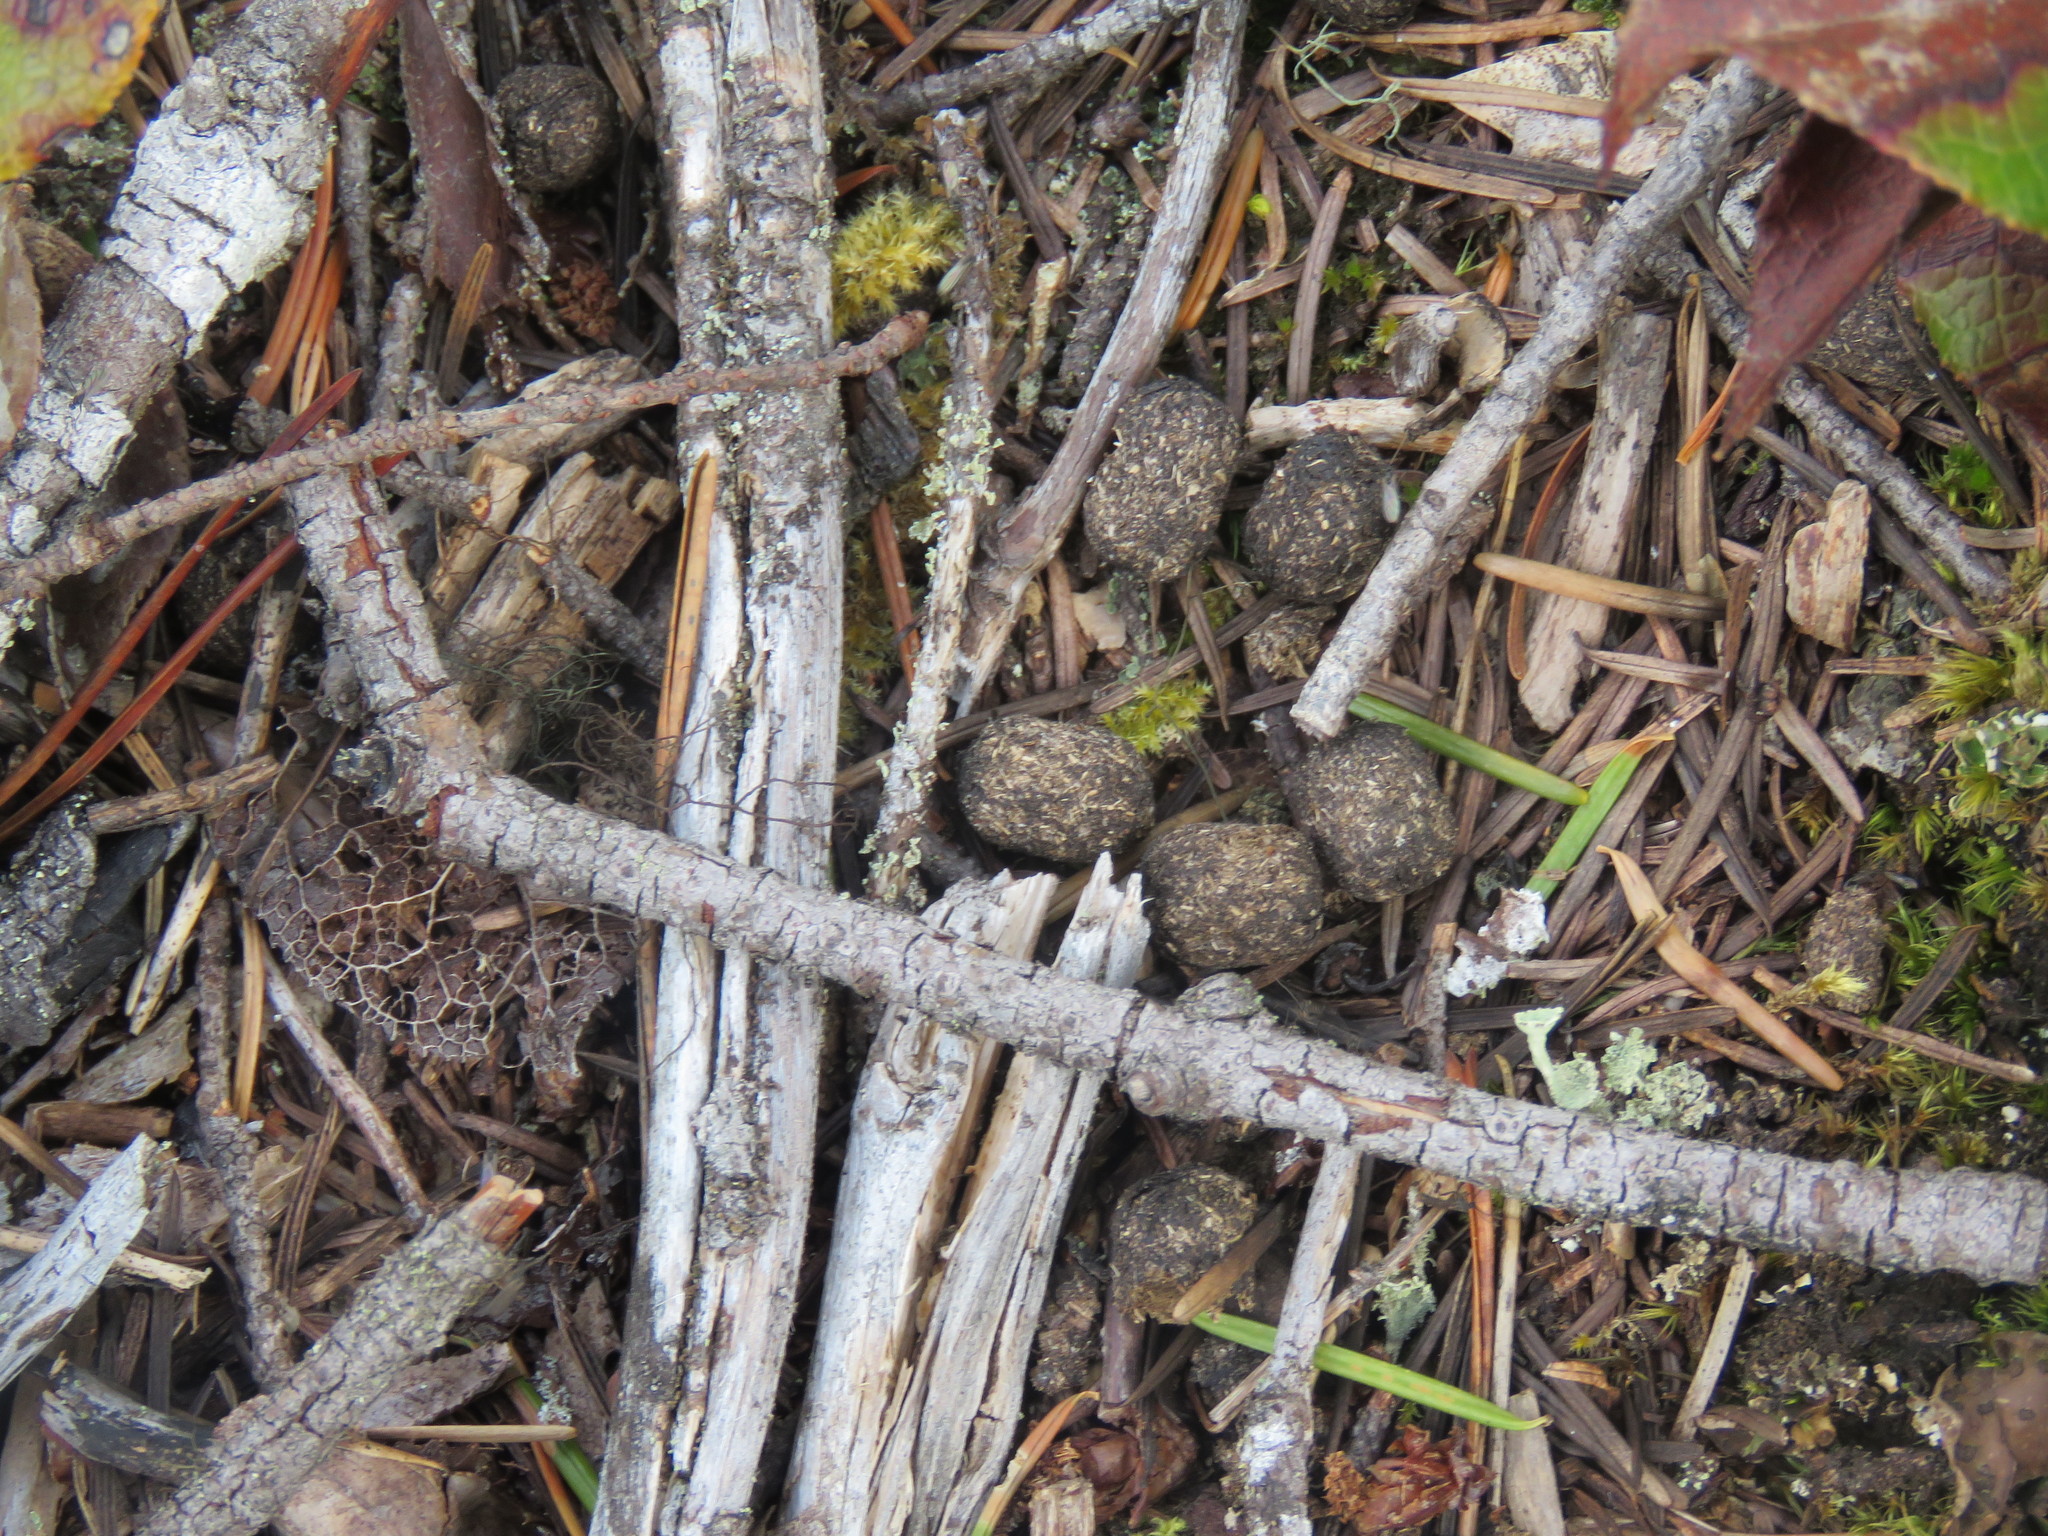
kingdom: Animalia
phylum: Chordata
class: Mammalia
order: Artiodactyla
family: Cervidae
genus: Odocoileus
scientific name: Odocoileus hemionus
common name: Mule deer
